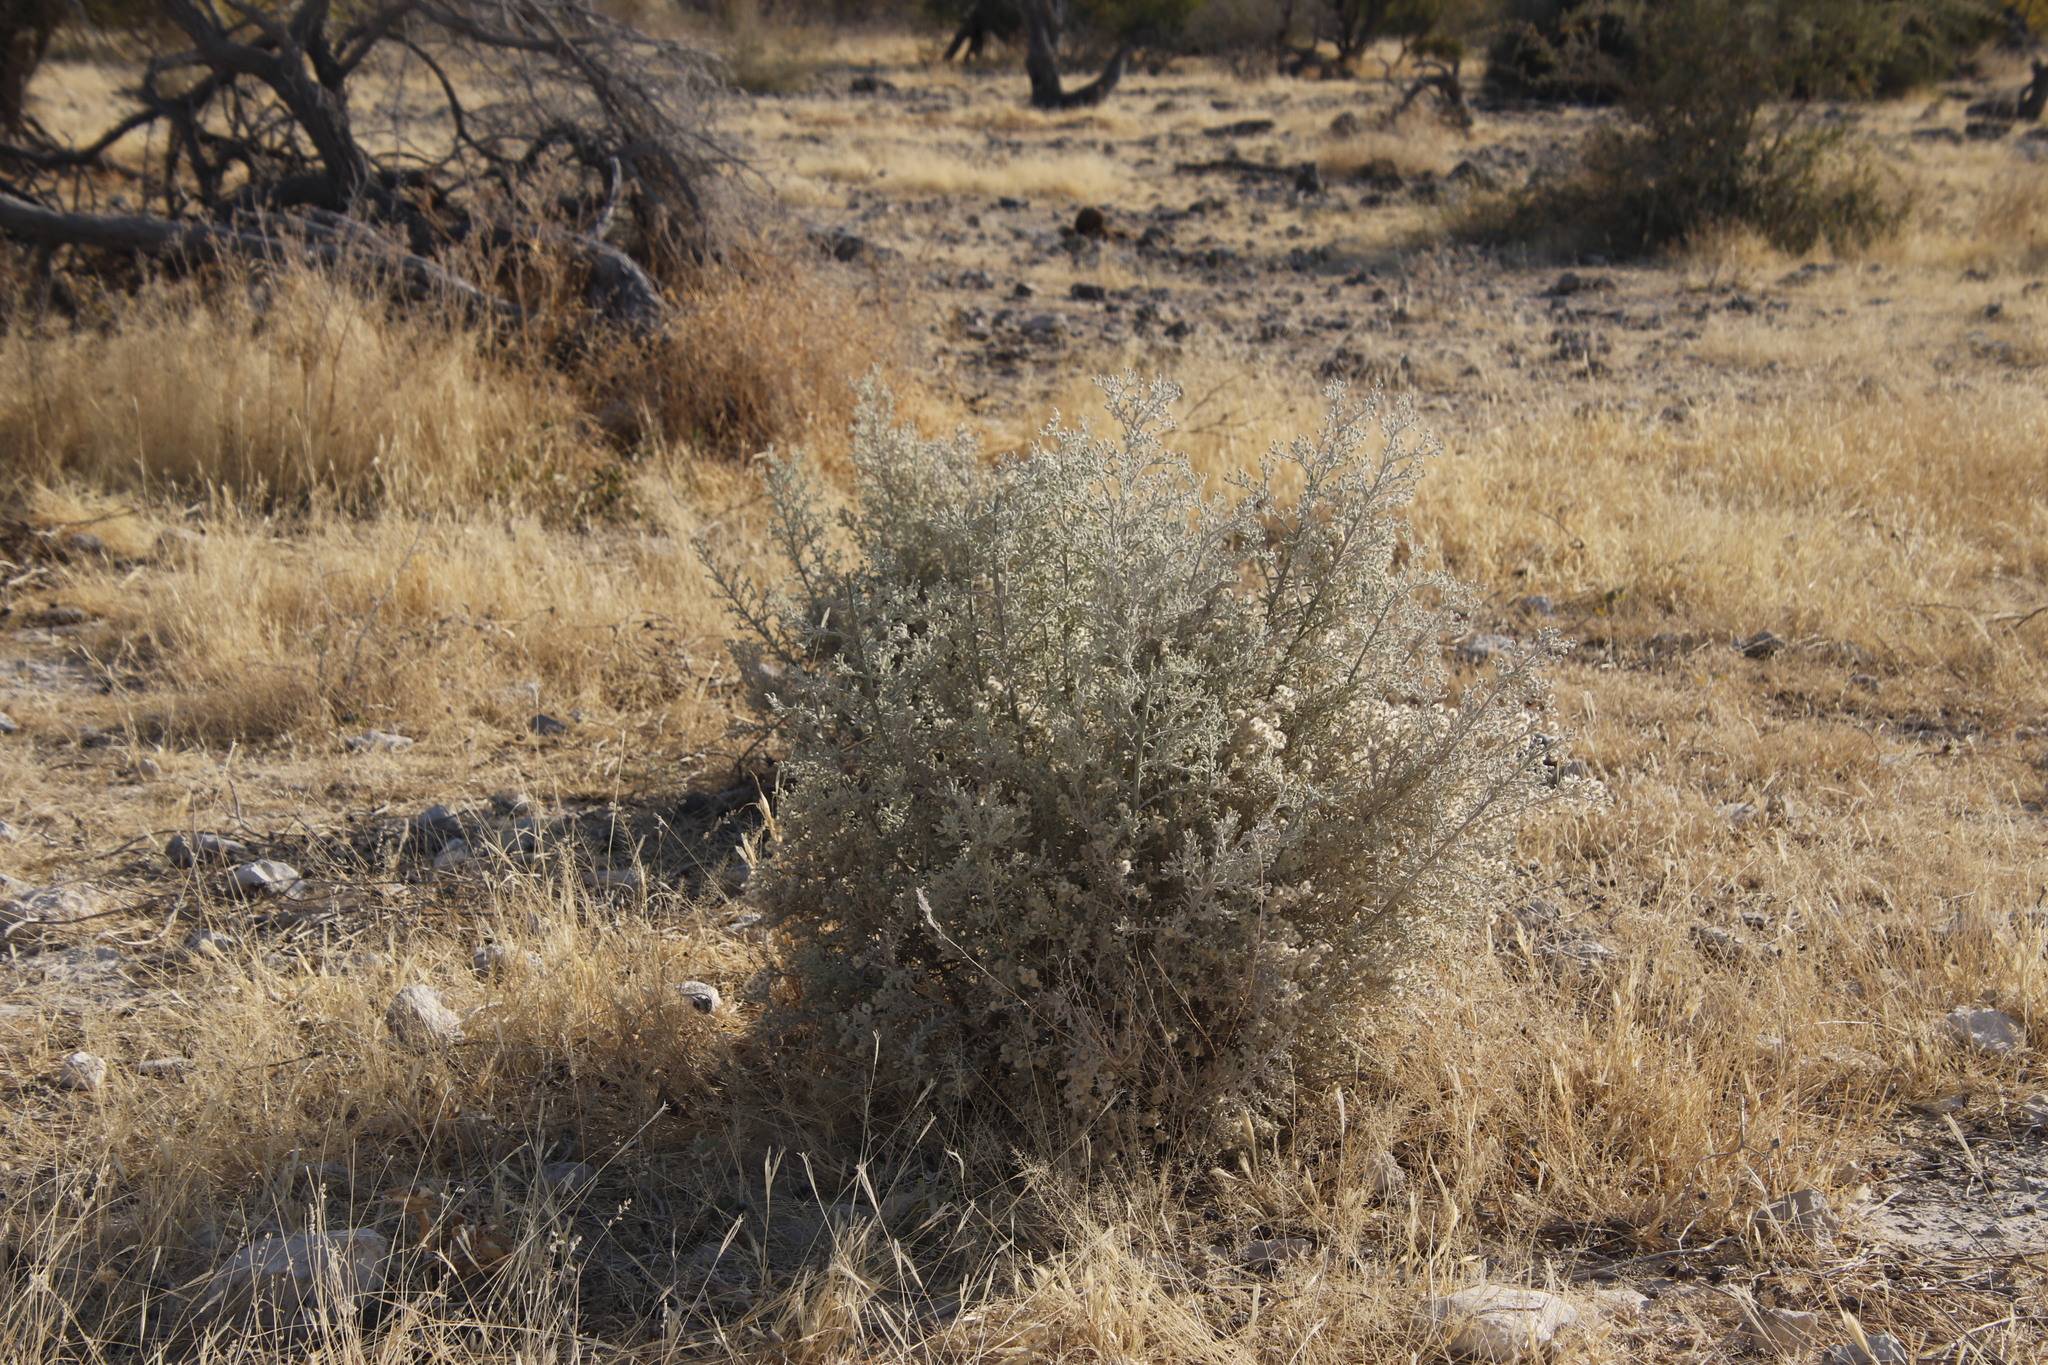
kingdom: Plantae
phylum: Tracheophyta
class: Magnoliopsida
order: Asterales
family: Asteraceae
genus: Pechuel-loeschea
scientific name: Pechuel-loeschea leubnitziae
